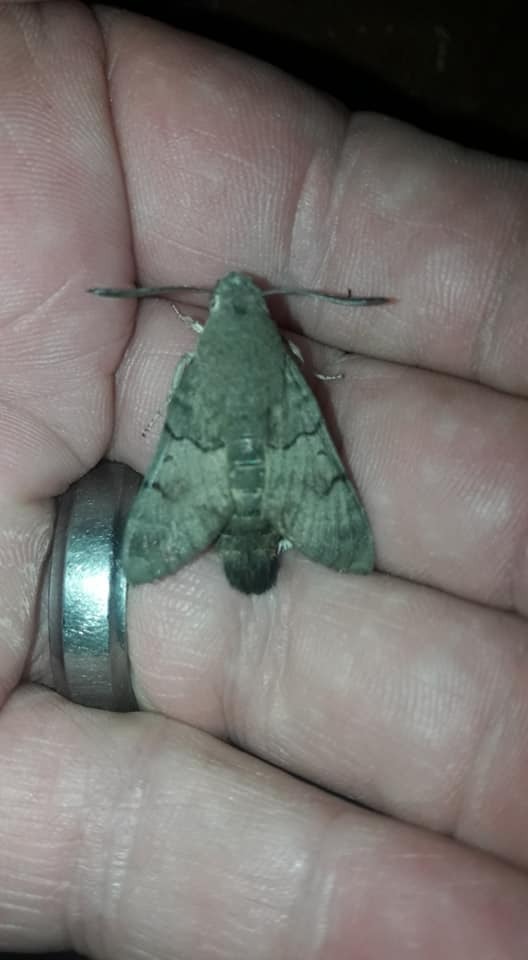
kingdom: Animalia
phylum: Arthropoda
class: Insecta
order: Lepidoptera
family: Sphingidae
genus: Macroglossum
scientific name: Macroglossum stellatarum
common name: Humming-bird hawk-moth
